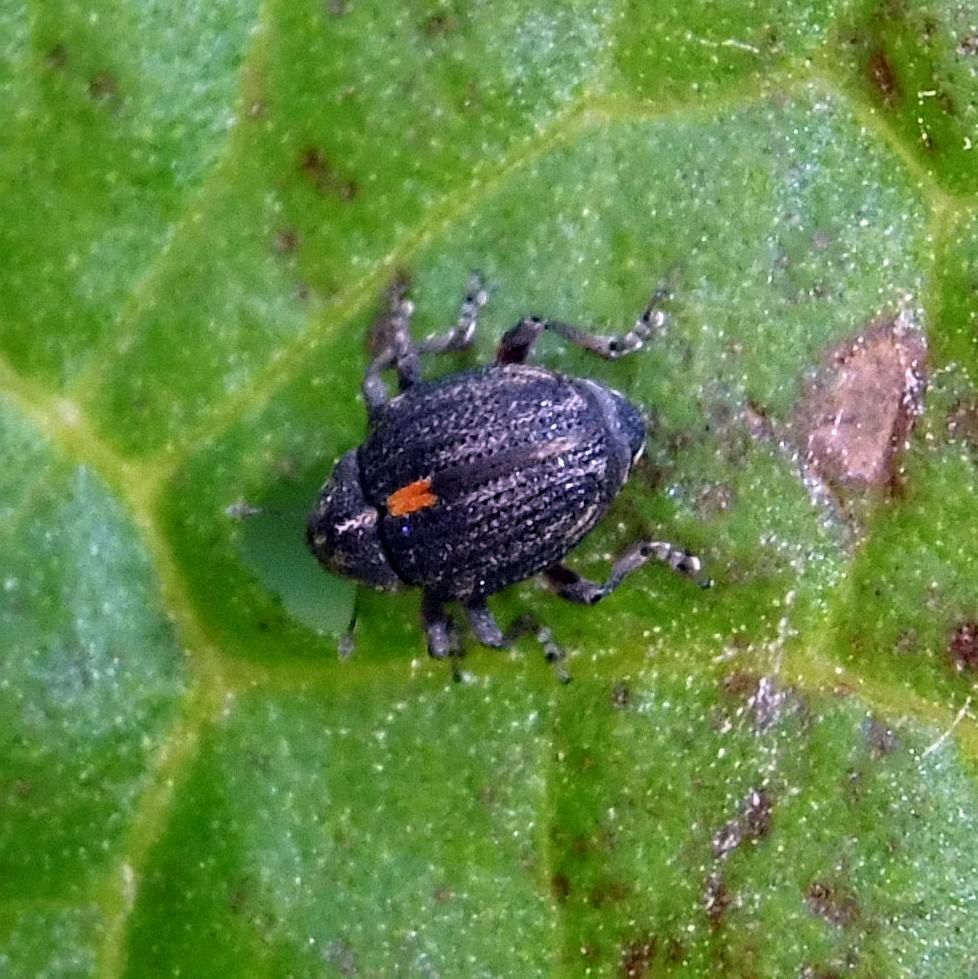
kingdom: Animalia
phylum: Arthropoda
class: Insecta
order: Coleoptera
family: Curculionidae
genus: Rhinoncus
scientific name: Rhinoncus leucostigma
